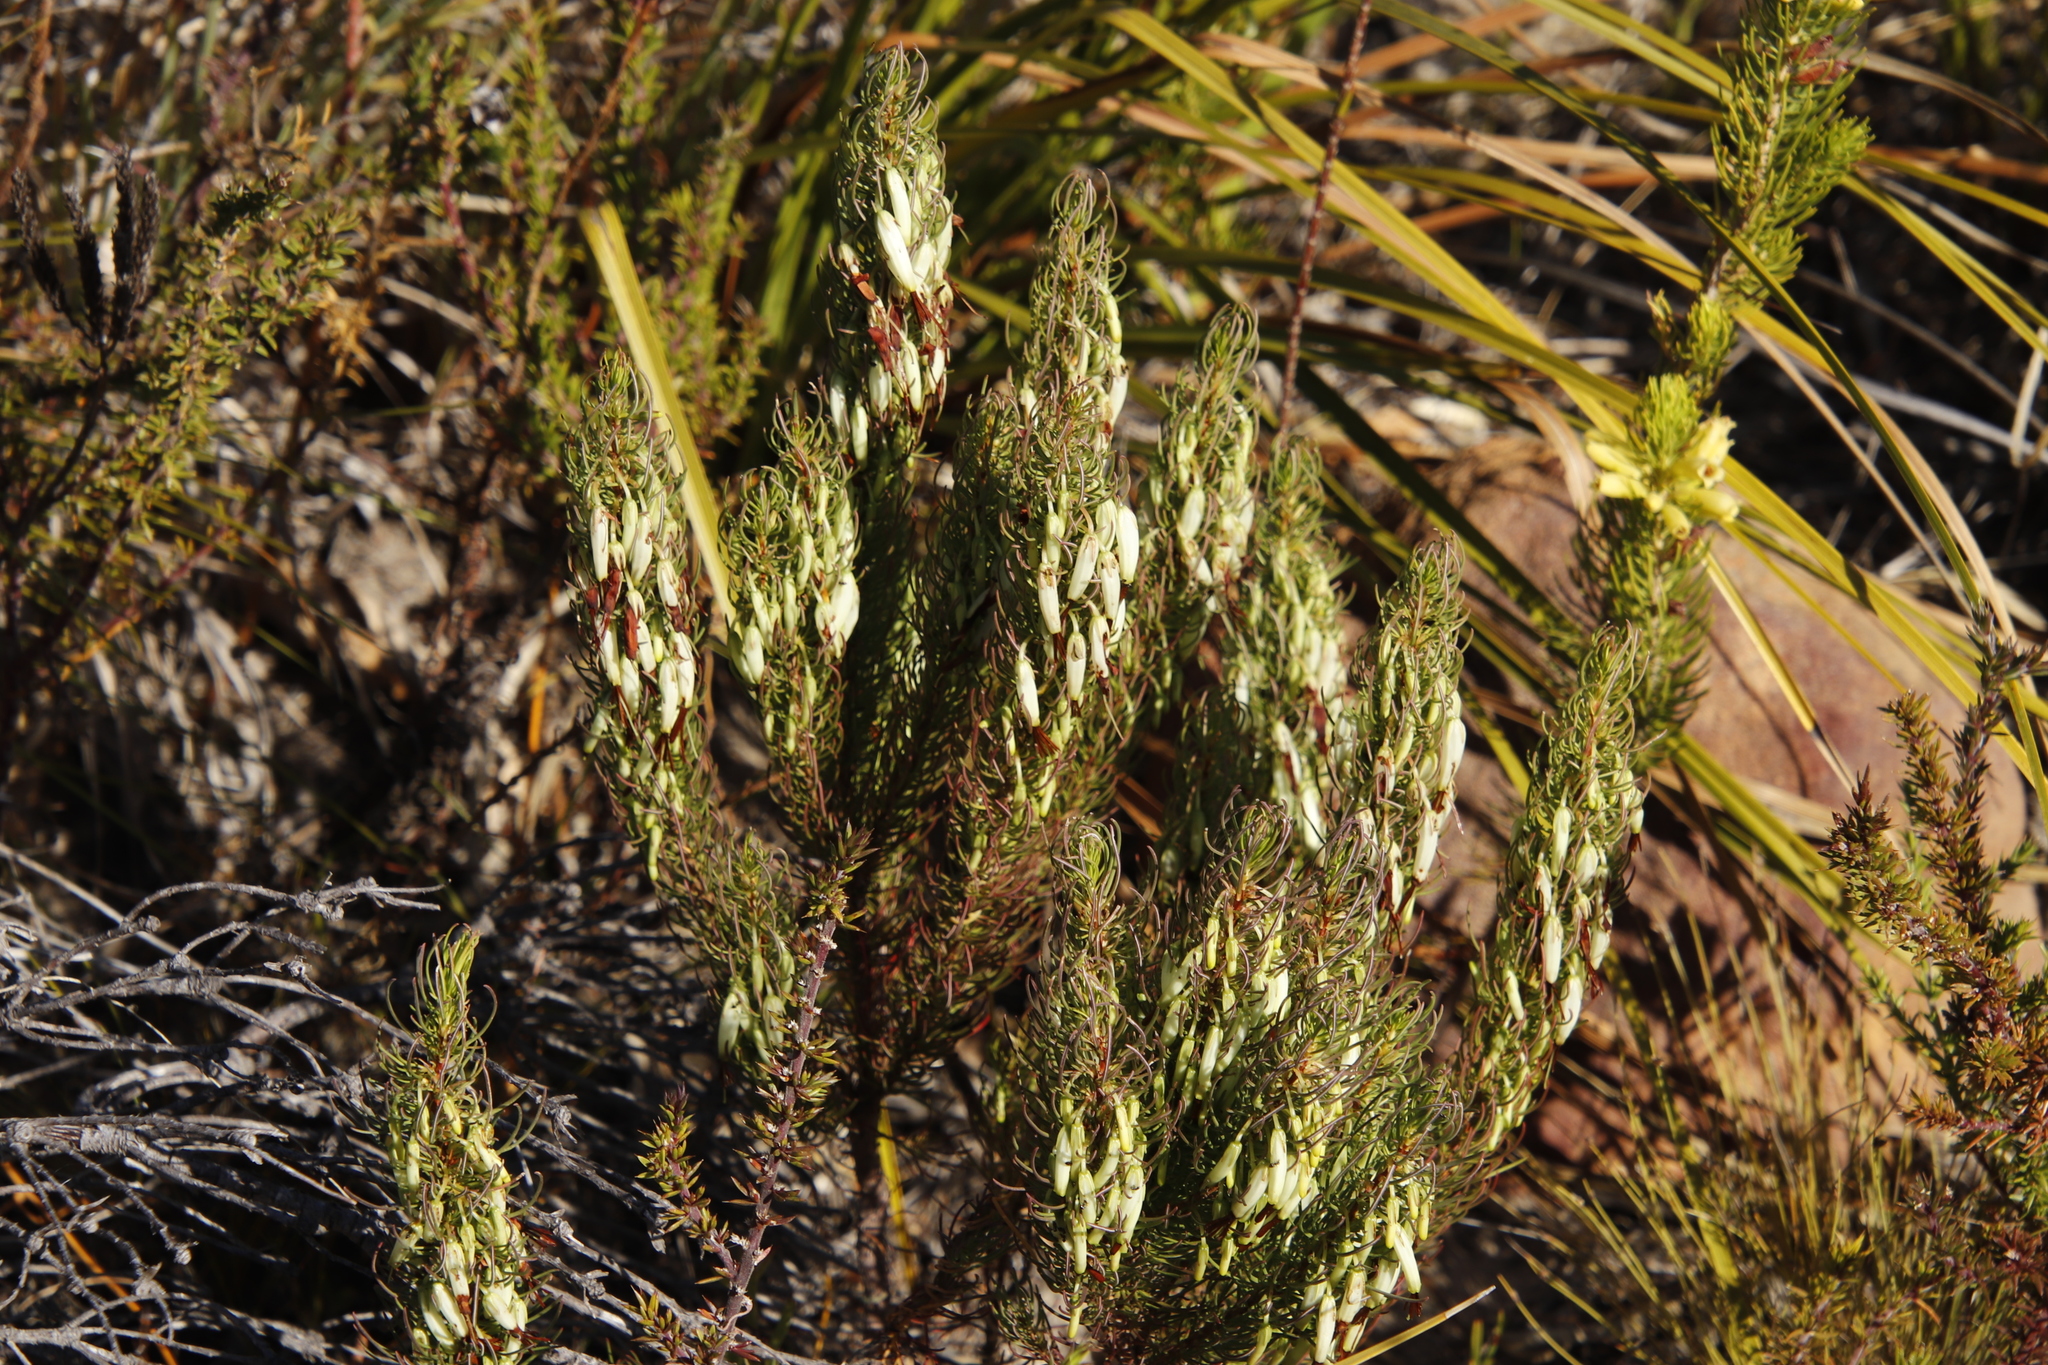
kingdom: Plantae
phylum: Tracheophyta
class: Magnoliopsida
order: Ericales
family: Ericaceae
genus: Erica
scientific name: Erica plukenetii
